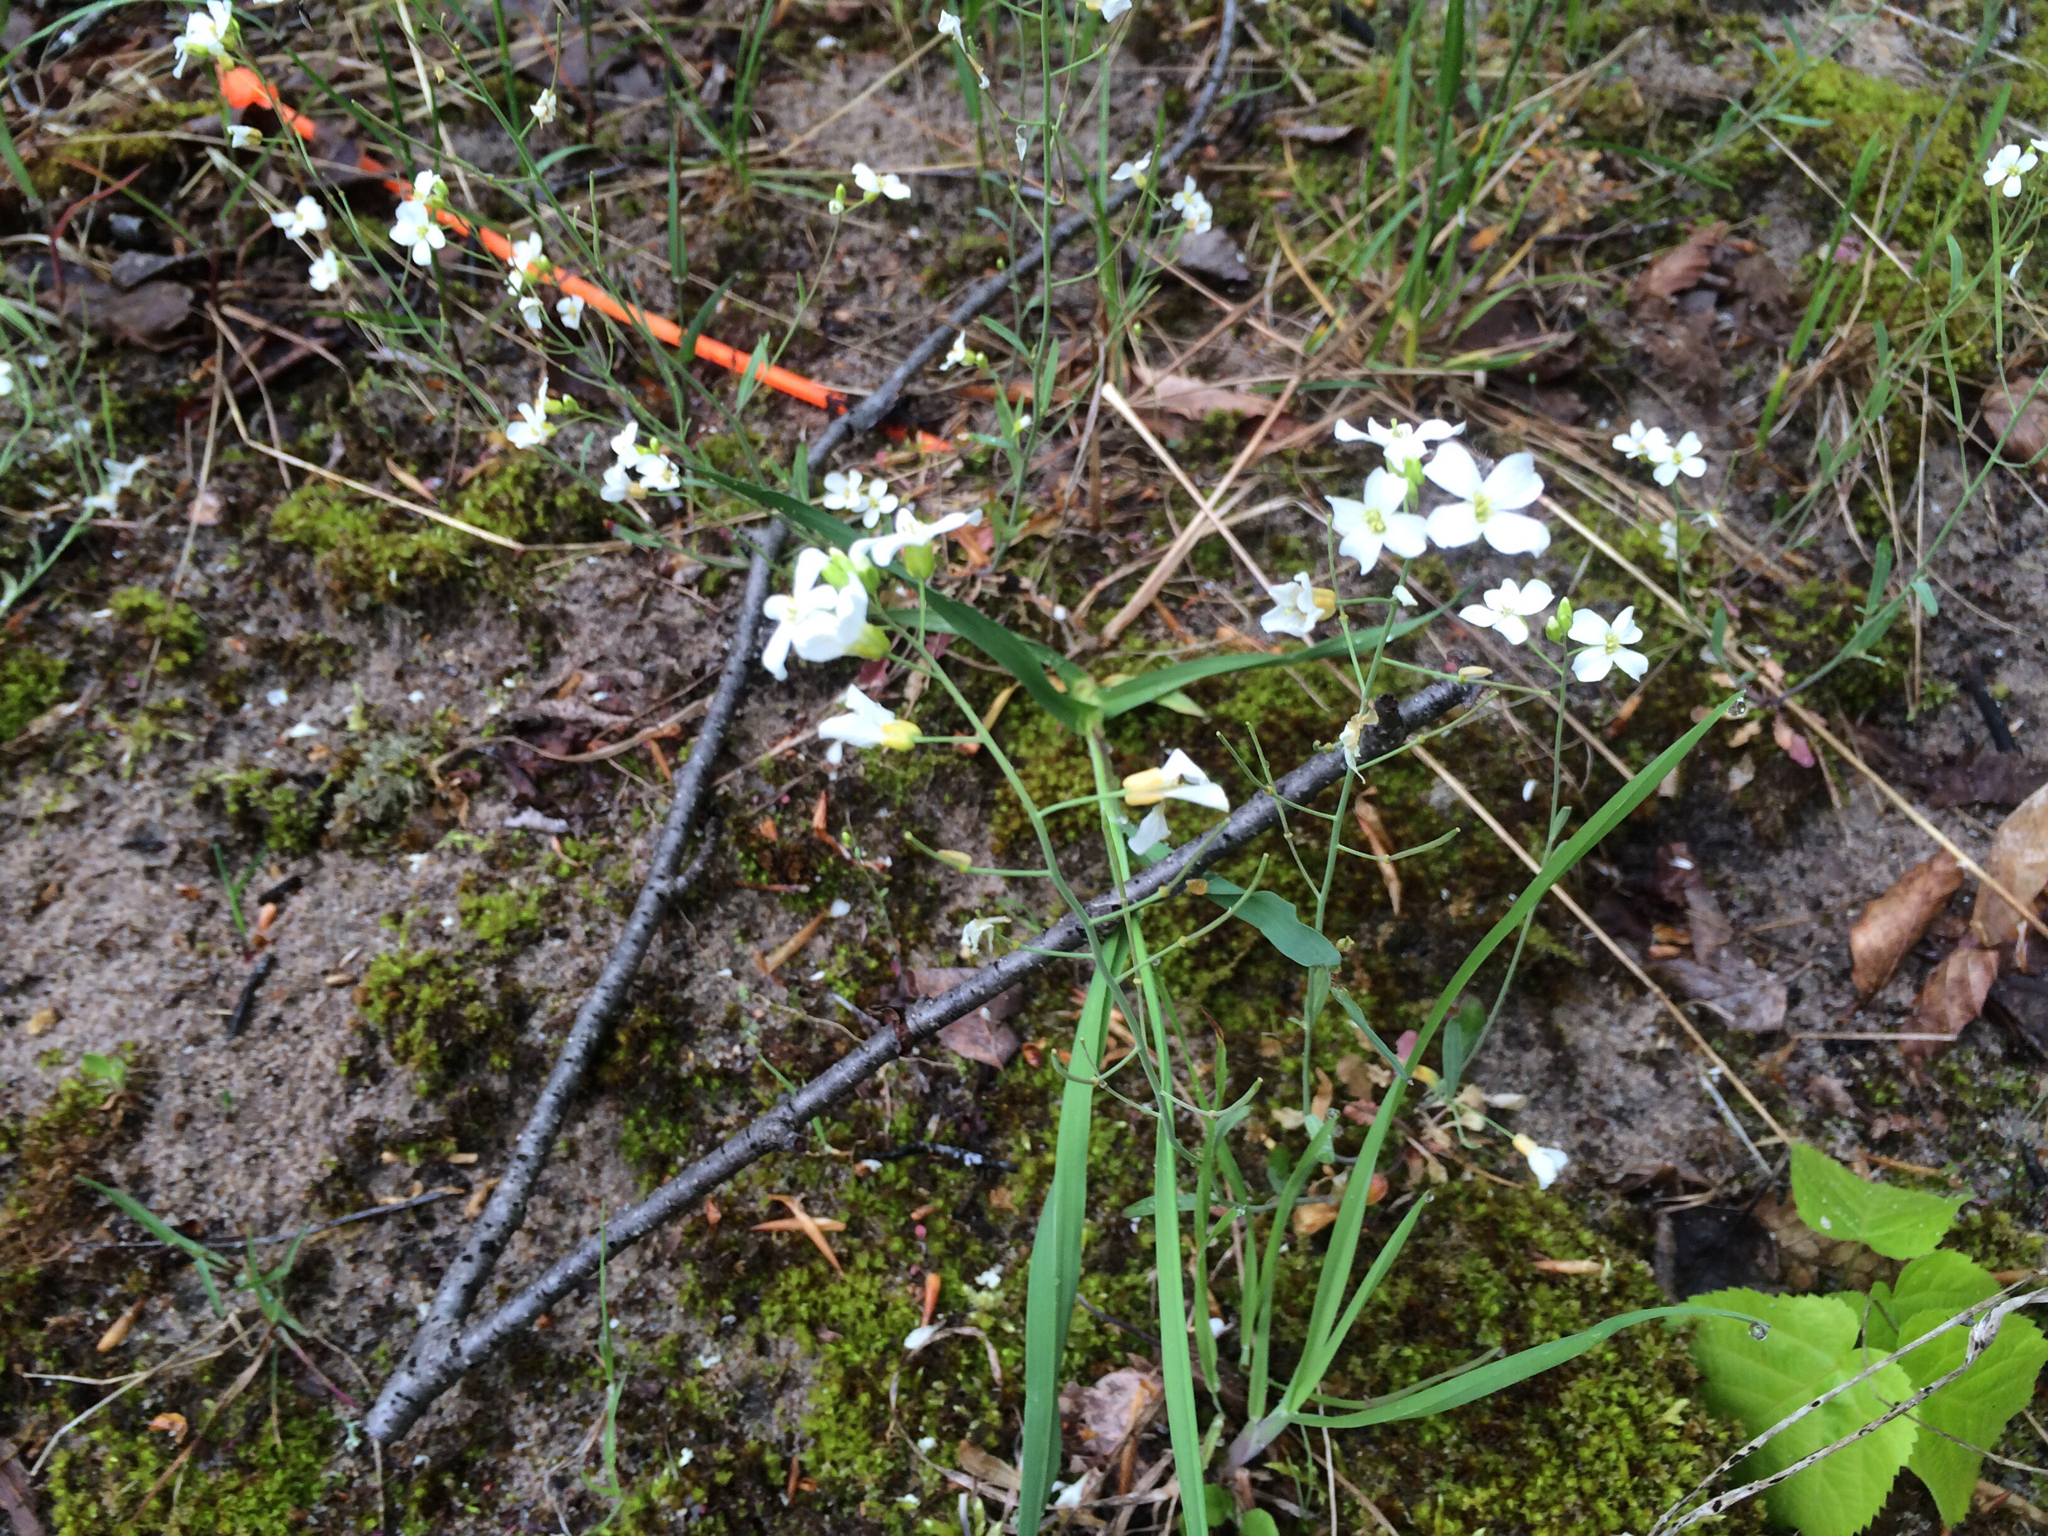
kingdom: Plantae
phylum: Tracheophyta
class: Magnoliopsida
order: Brassicales
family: Brassicaceae
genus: Arabidopsis
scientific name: Arabidopsis lyrata
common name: Lyrate rockcress
